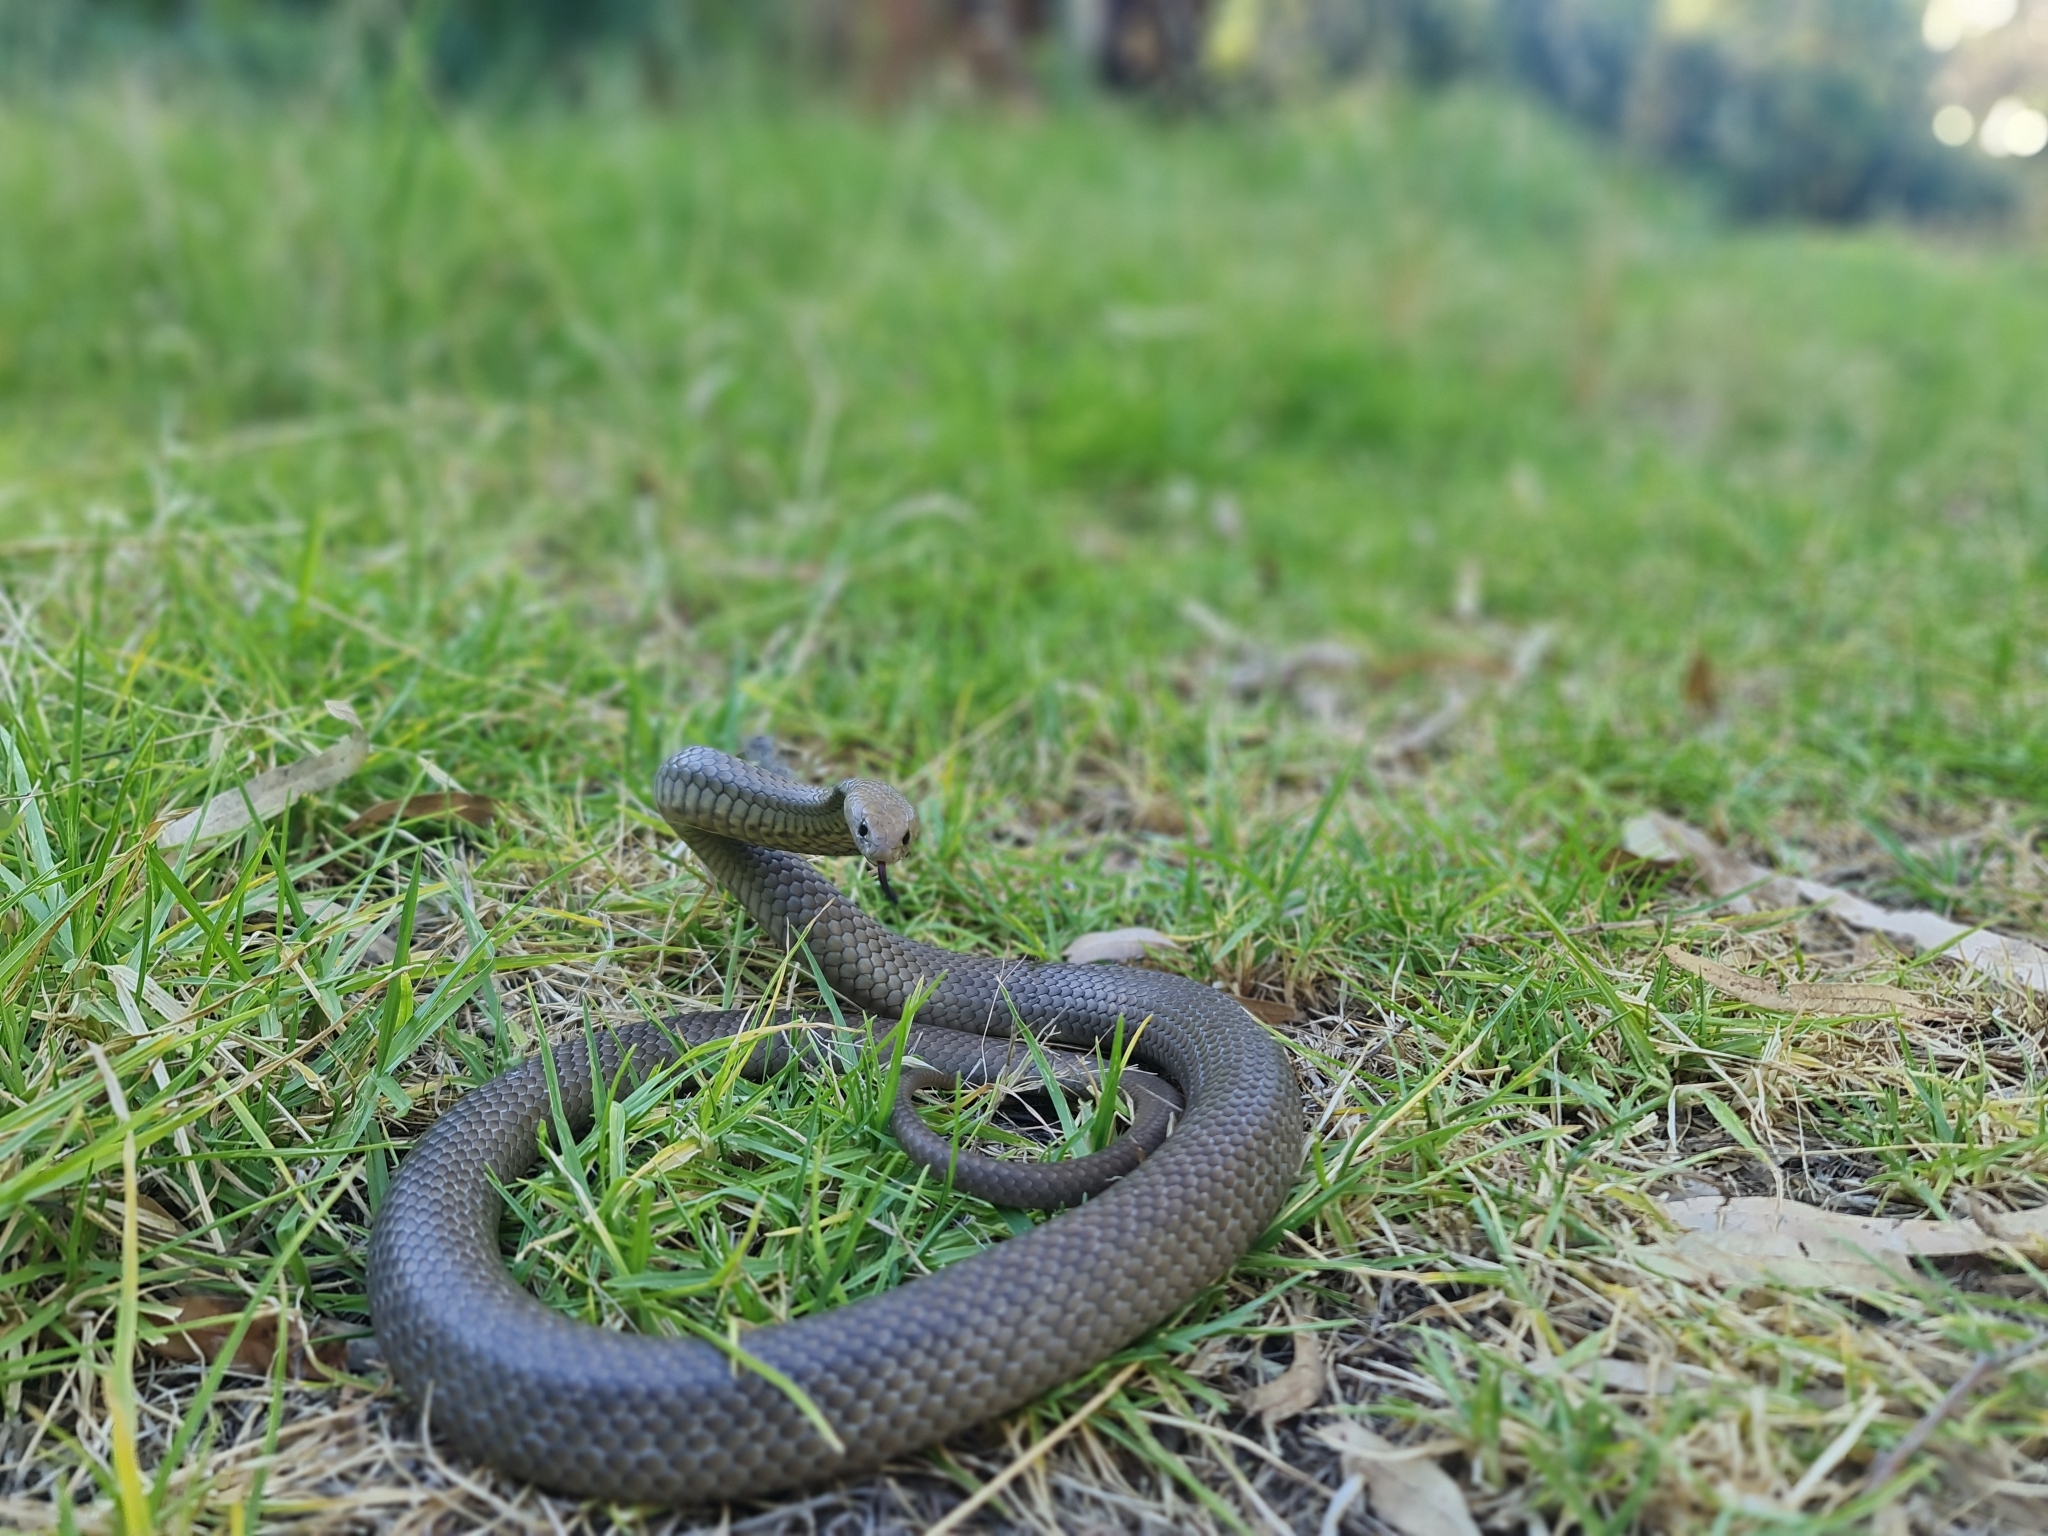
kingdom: Animalia
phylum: Chordata
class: Squamata
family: Elapidae
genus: Pseudonaja
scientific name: Pseudonaja textilis
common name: Eastern brown snake
